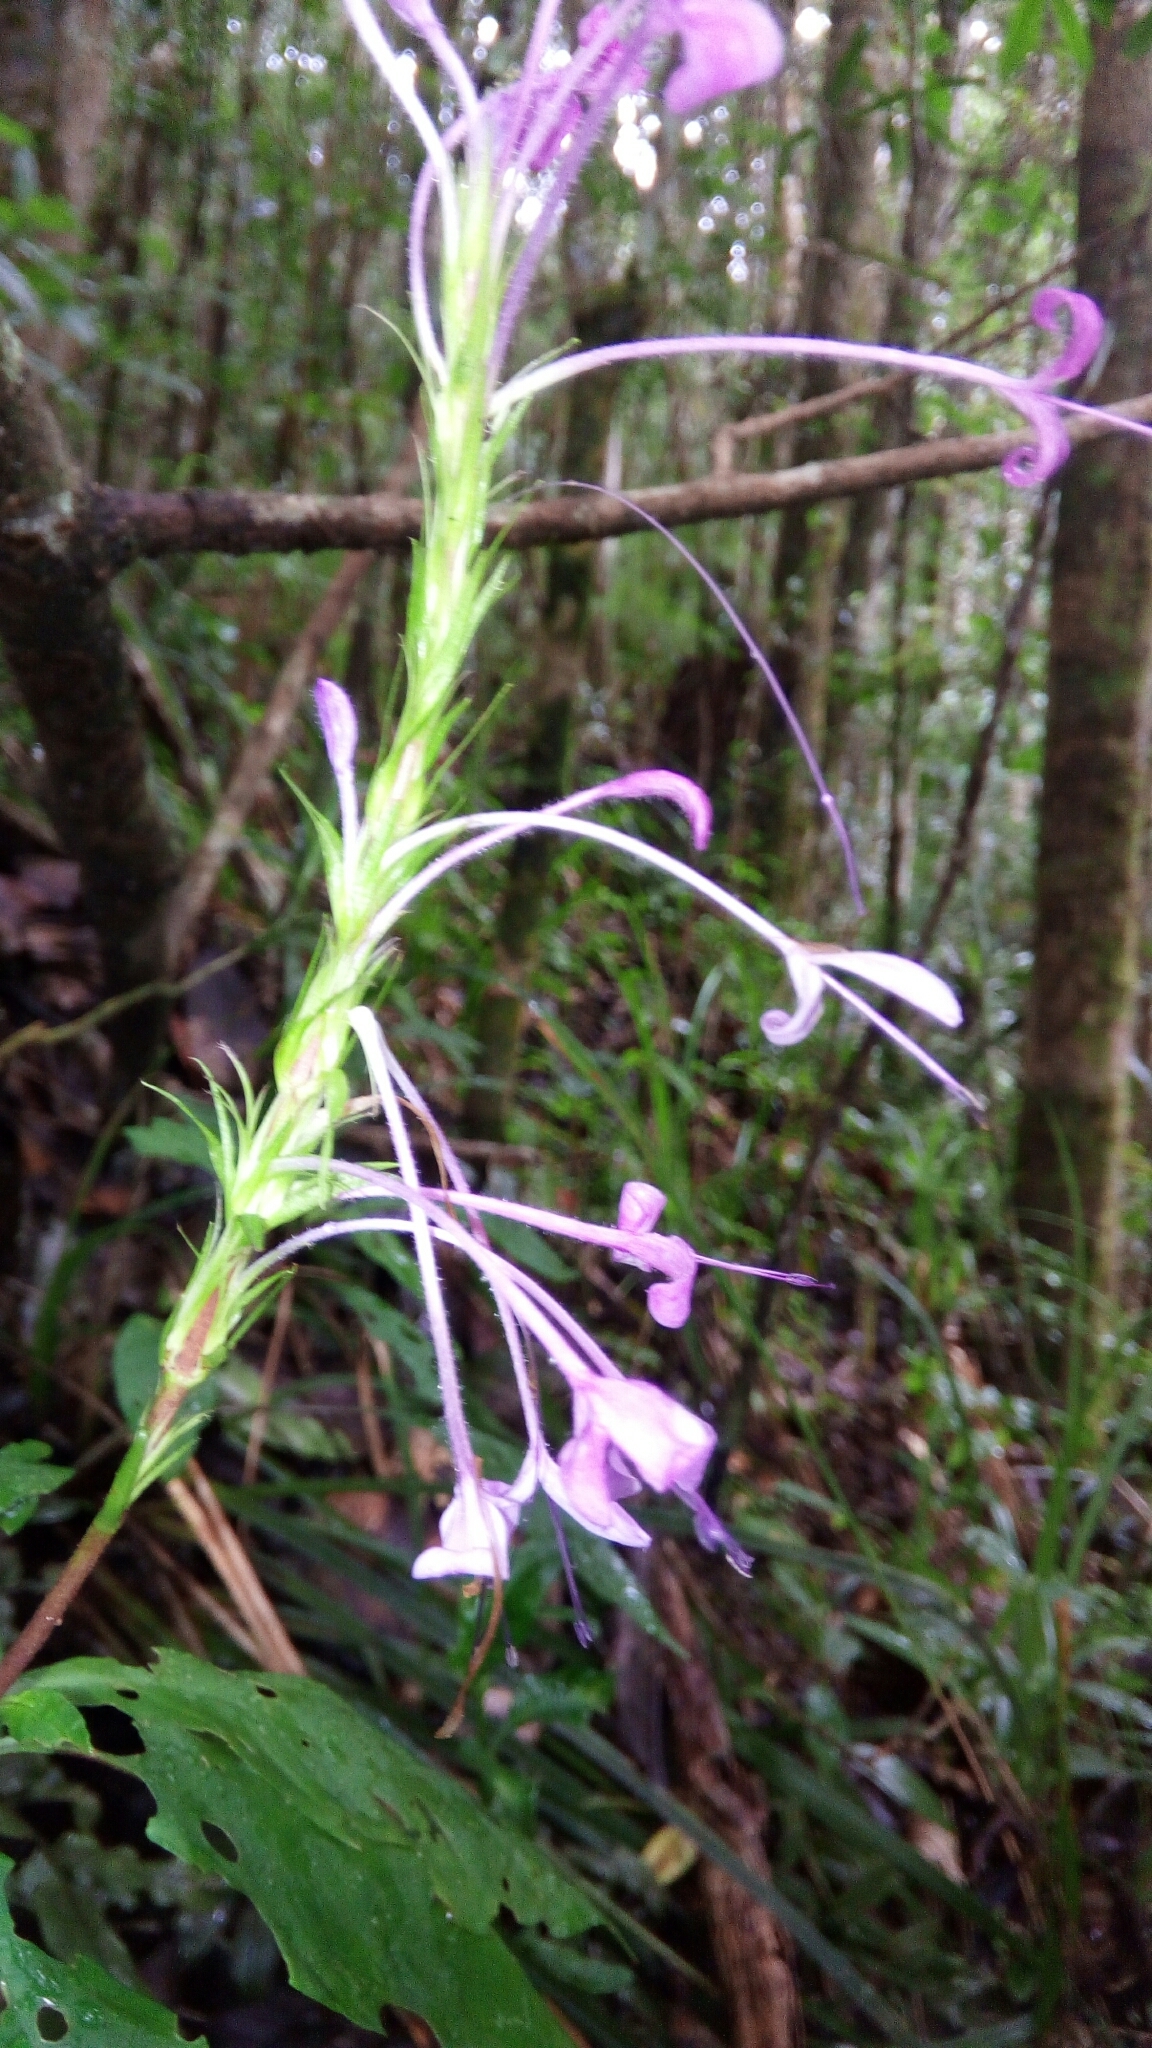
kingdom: Plantae
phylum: Tracheophyta
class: Magnoliopsida
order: Lamiales
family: Acanthaceae
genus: Brachystephanus
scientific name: Brachystephanus lyallii
